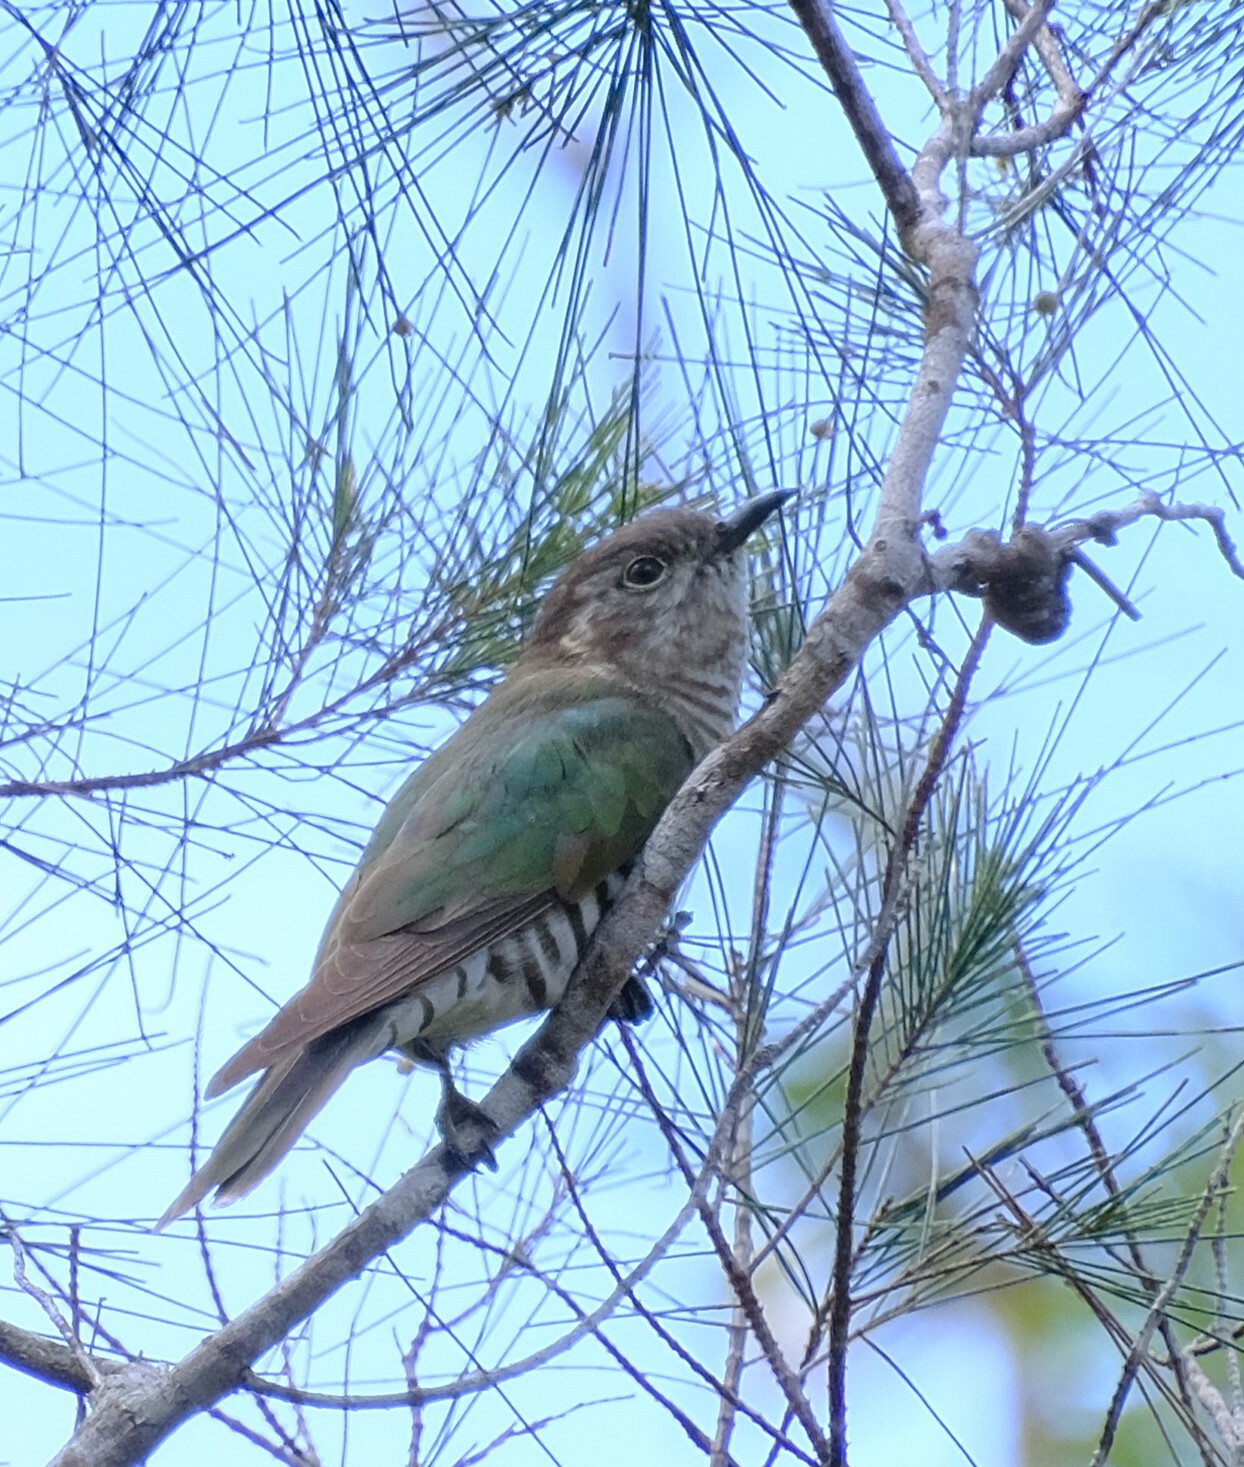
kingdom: Animalia
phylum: Chordata
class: Aves
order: Cuculiformes
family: Cuculidae
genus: Chrysococcyx
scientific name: Chrysococcyx lucidus
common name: Shining bronze cuckoo
